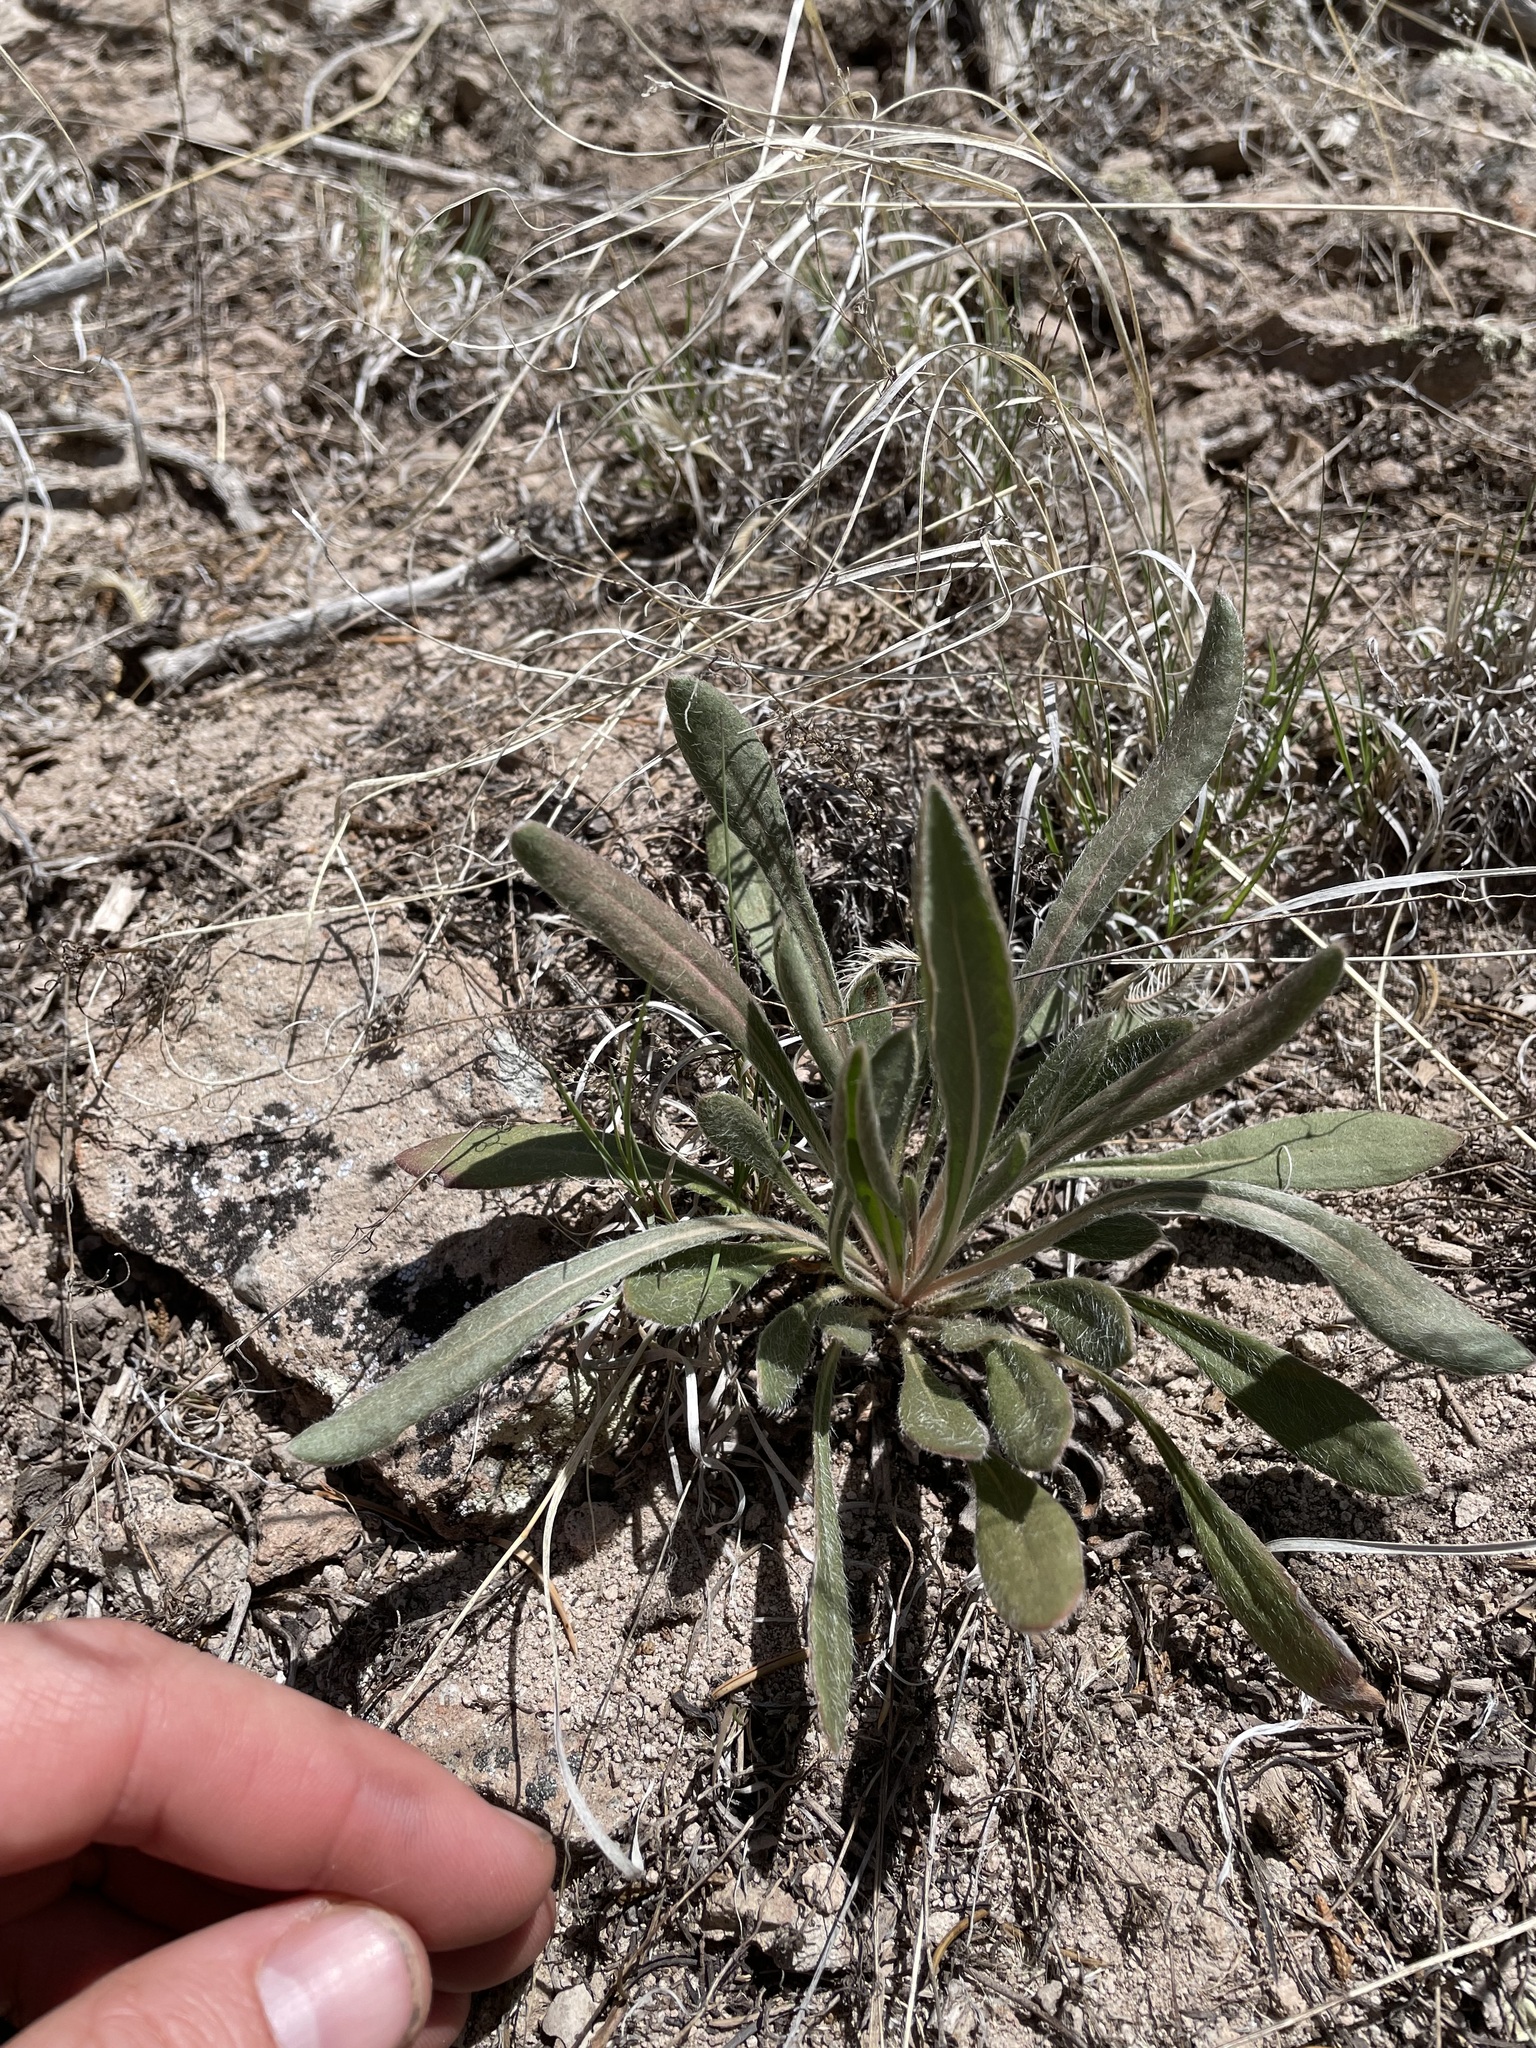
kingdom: Plantae
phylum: Tracheophyta
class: Magnoliopsida
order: Caryophyllales
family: Polygonaceae
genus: Eriogonum
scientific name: Eriogonum alatum
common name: Winged eriogonum
